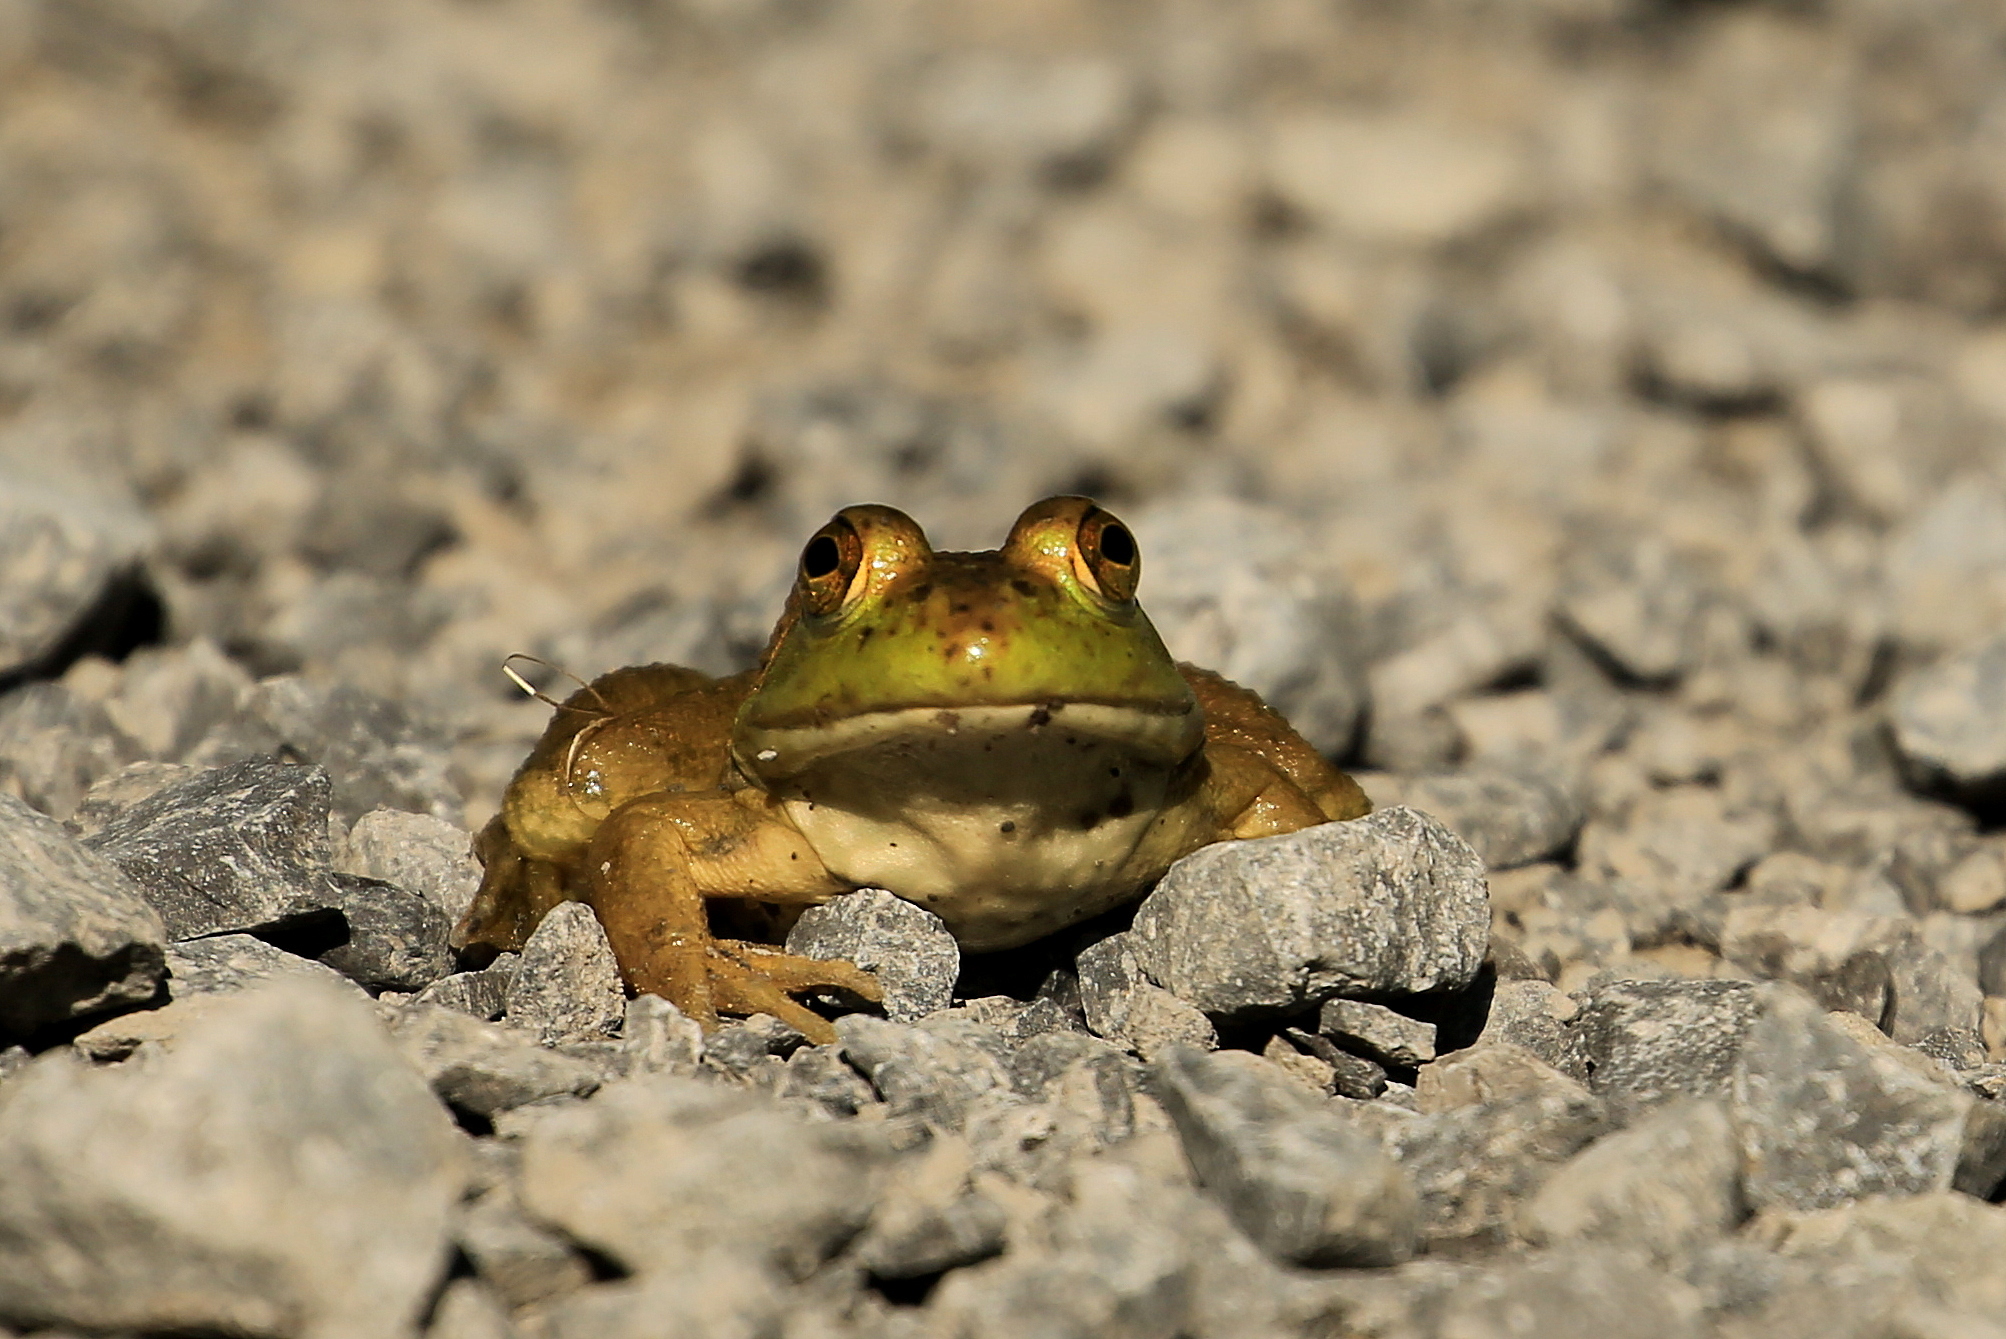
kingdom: Animalia
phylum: Chordata
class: Amphibia
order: Anura
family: Ranidae
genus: Lithobates
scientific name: Lithobates catesbeianus
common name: American bullfrog
